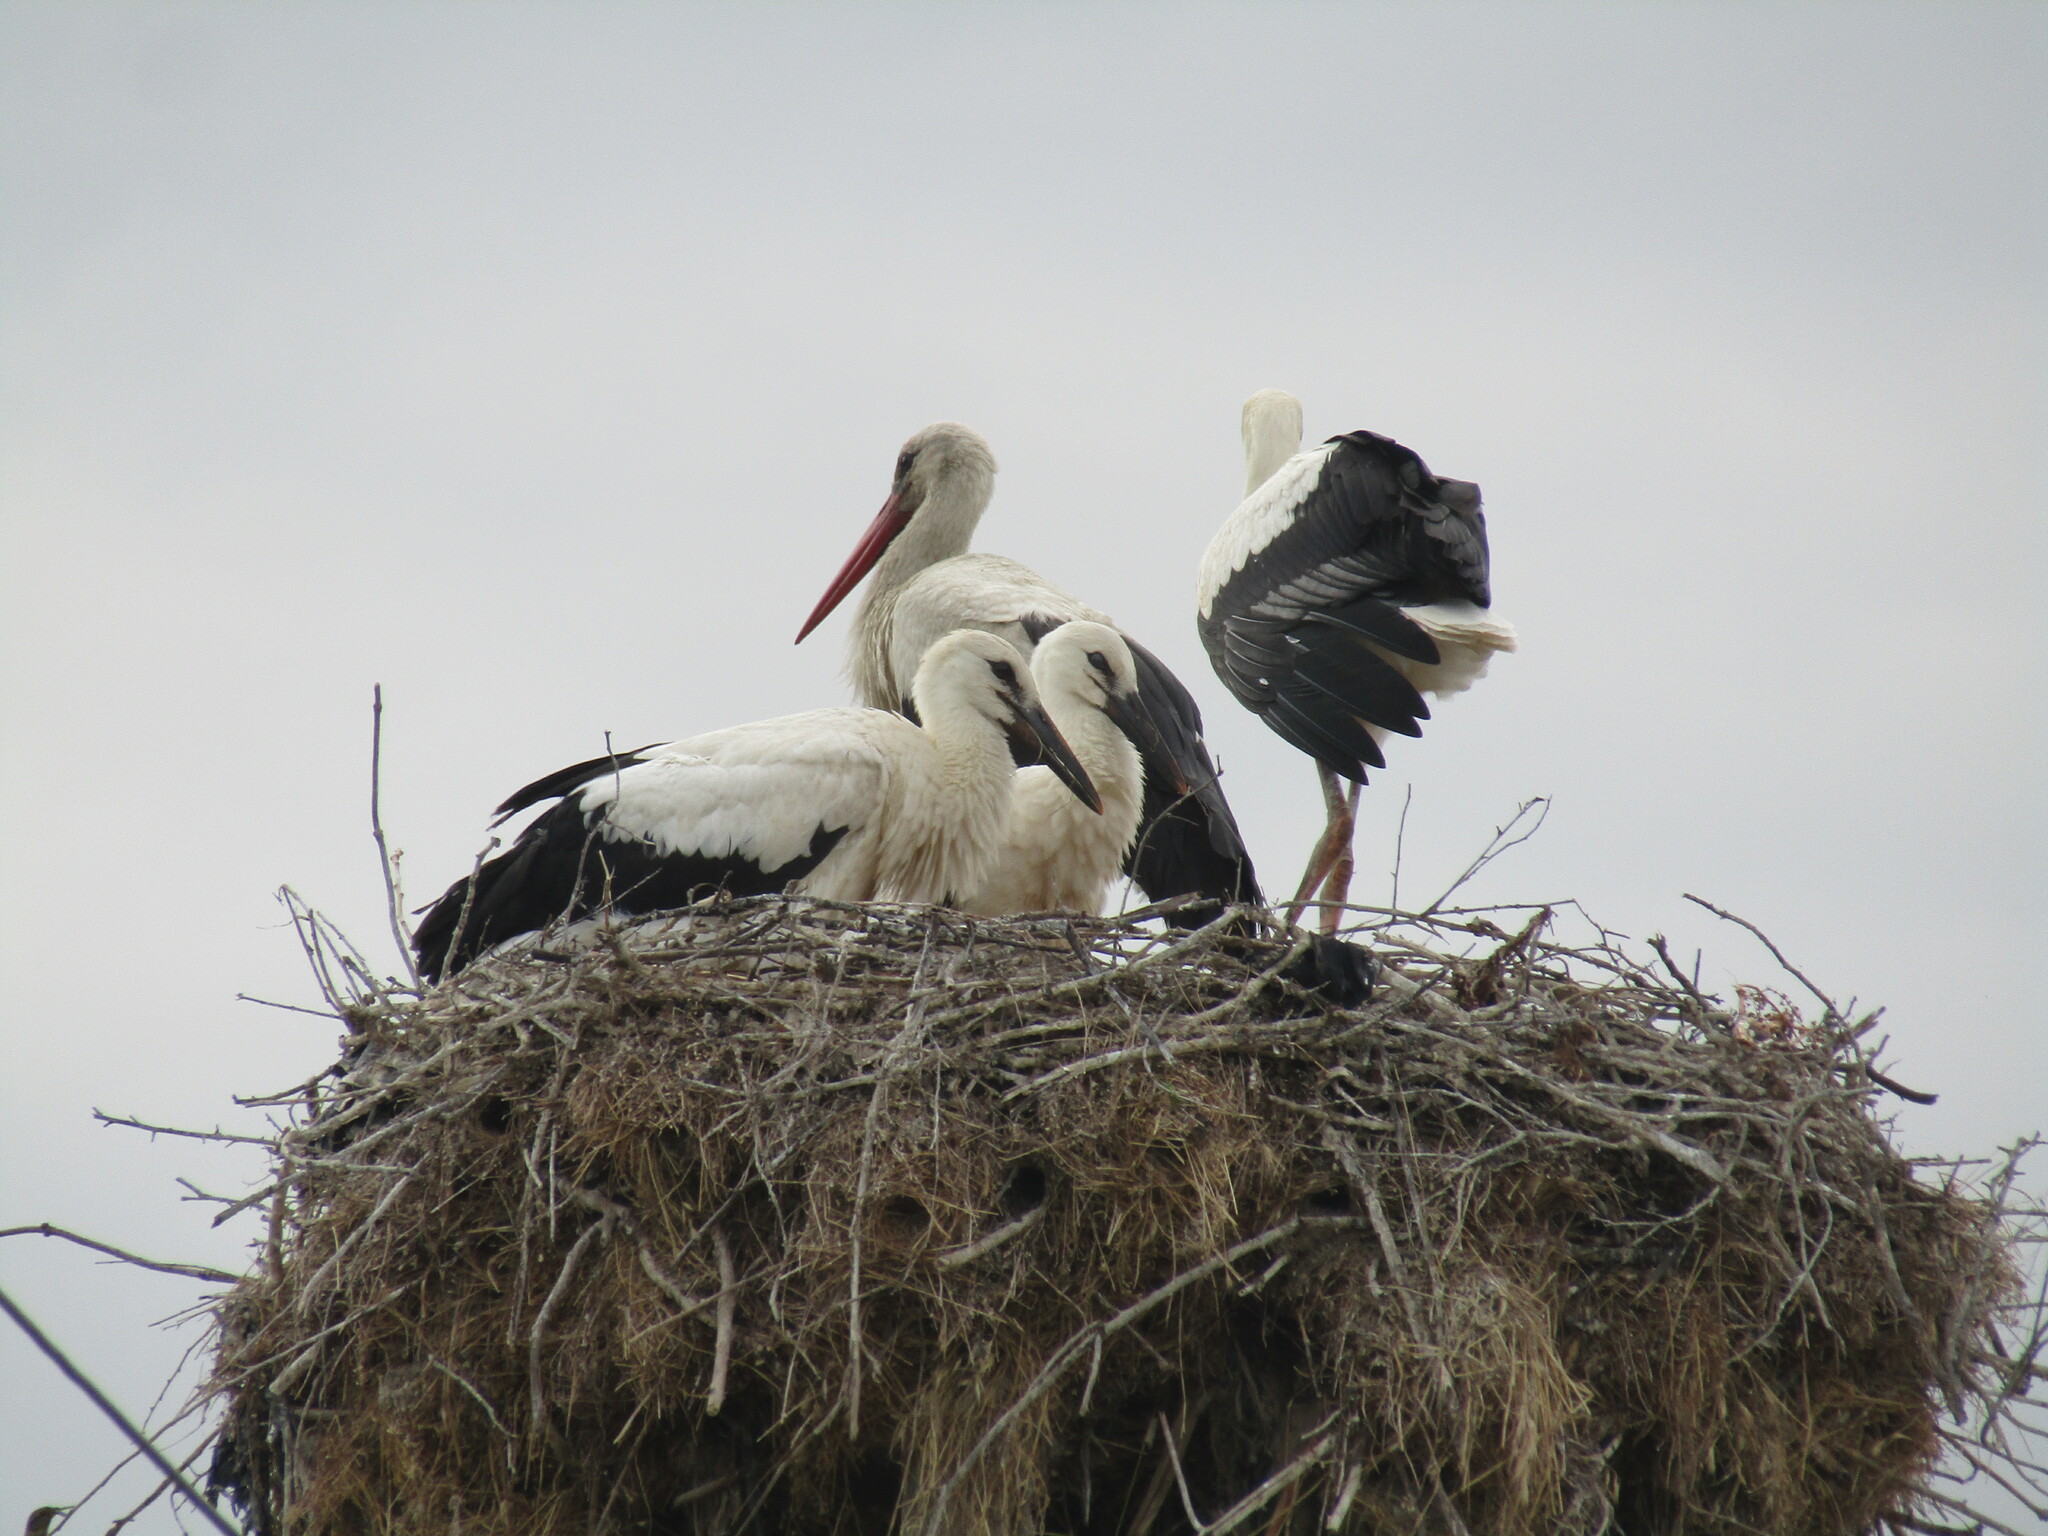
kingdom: Animalia
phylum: Chordata
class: Aves
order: Ciconiiformes
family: Ciconiidae
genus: Ciconia
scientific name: Ciconia ciconia
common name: White stork
